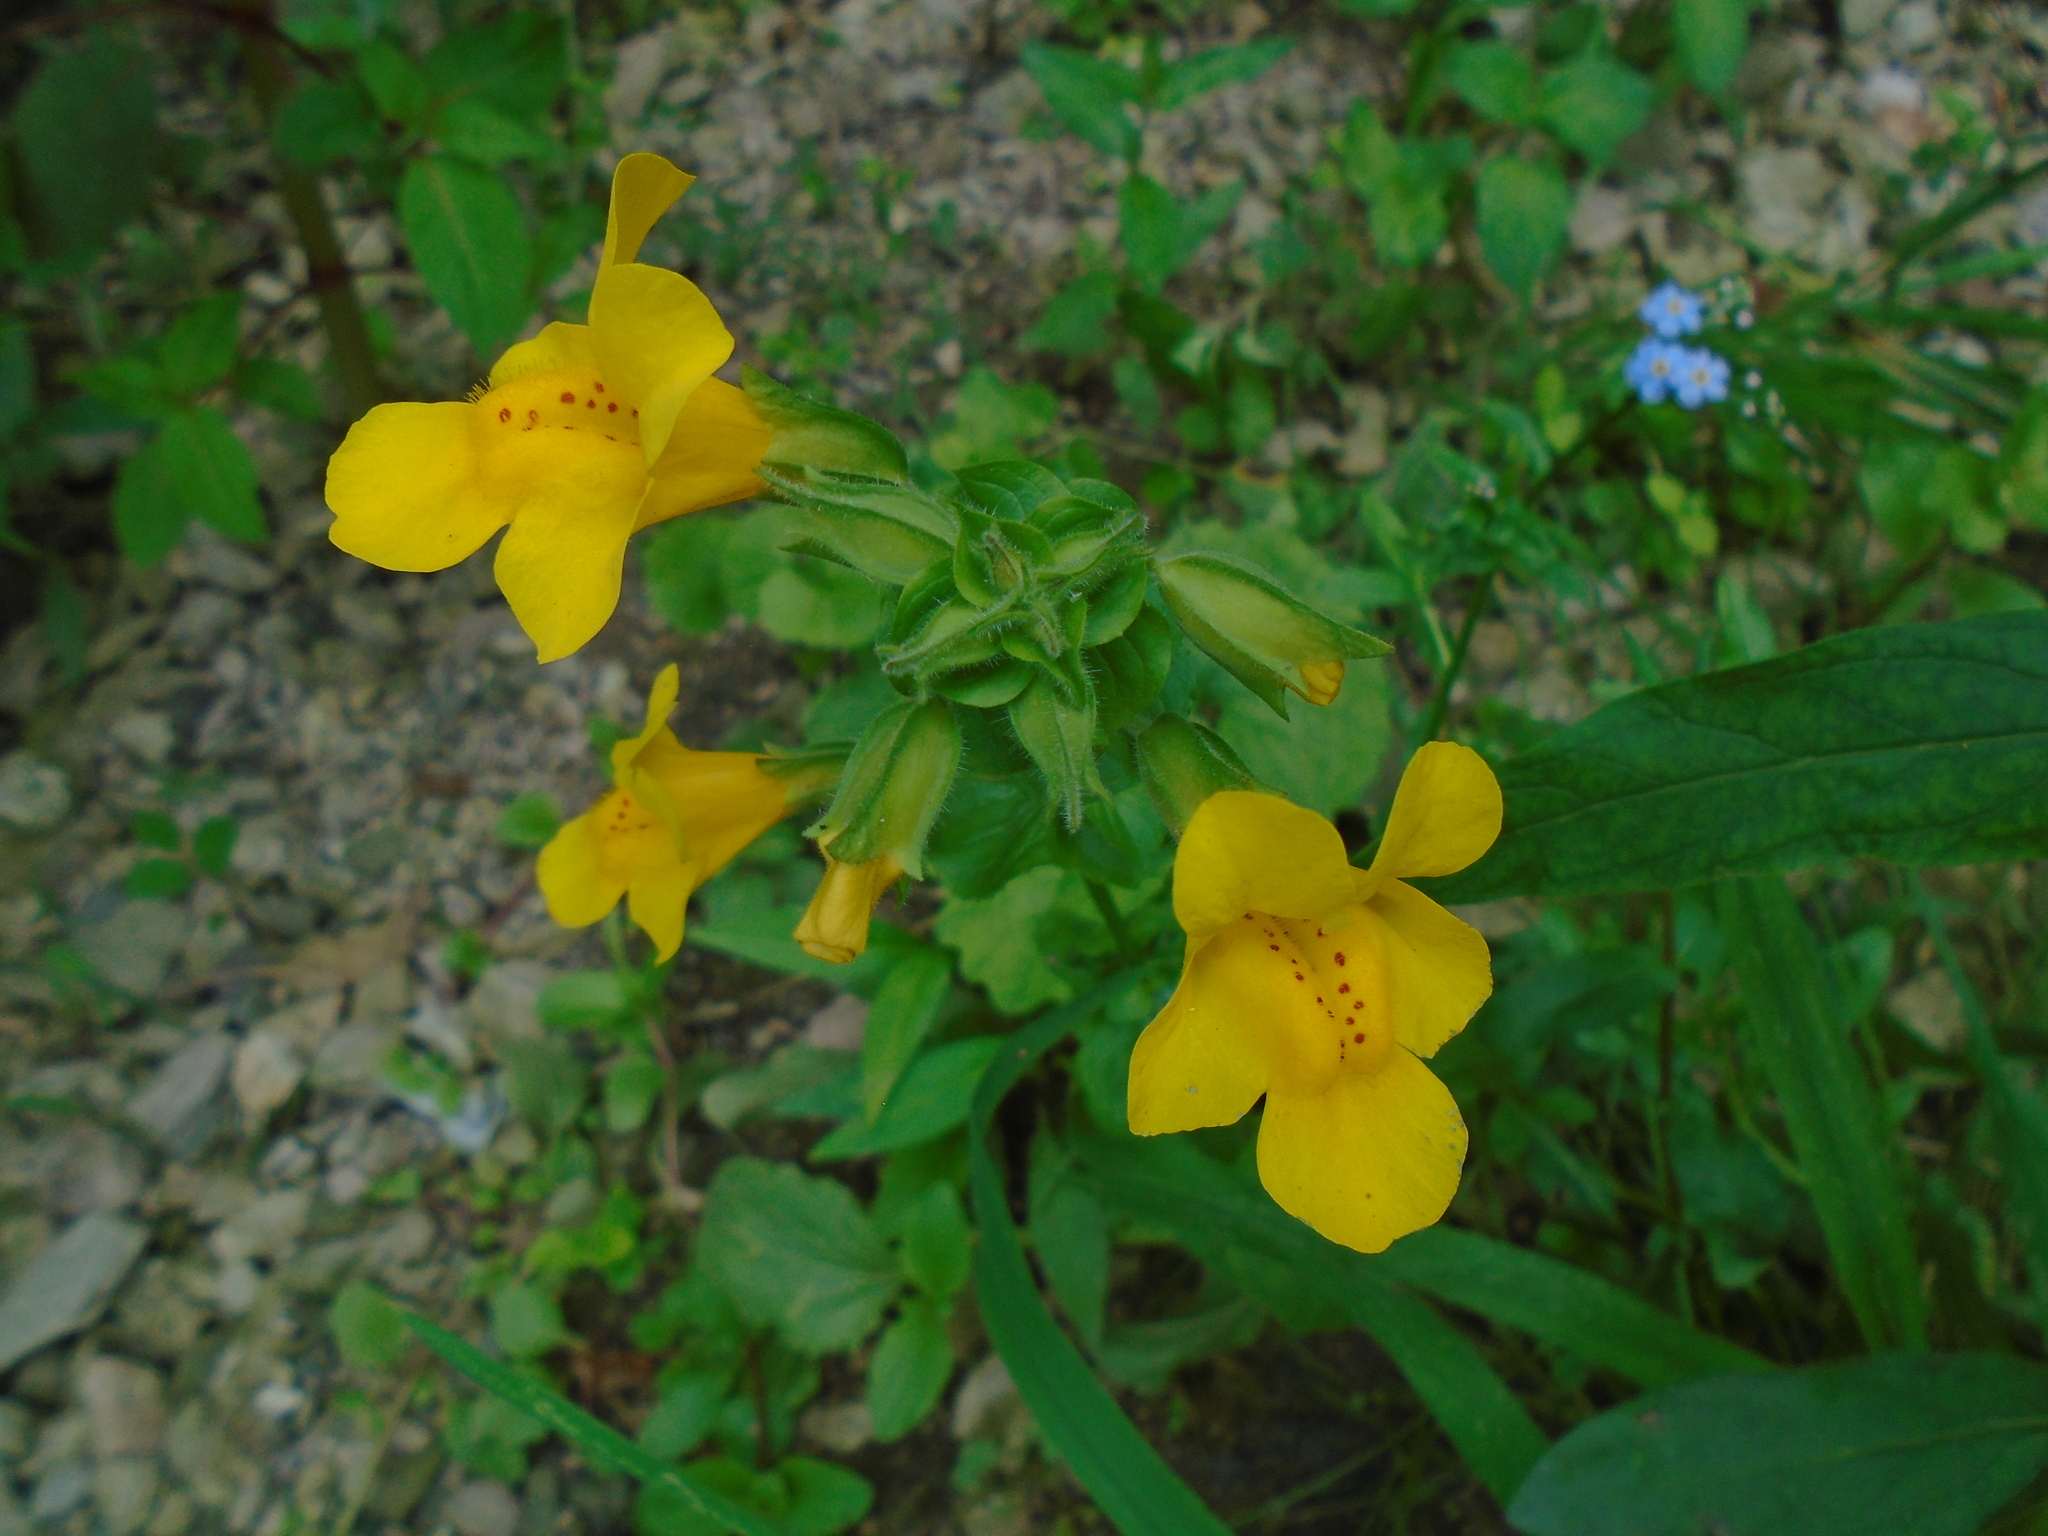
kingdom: Plantae
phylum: Tracheophyta
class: Magnoliopsida
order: Lamiales
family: Phrymaceae
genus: Erythranthe
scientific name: Erythranthe guttata
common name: Monkeyflower
